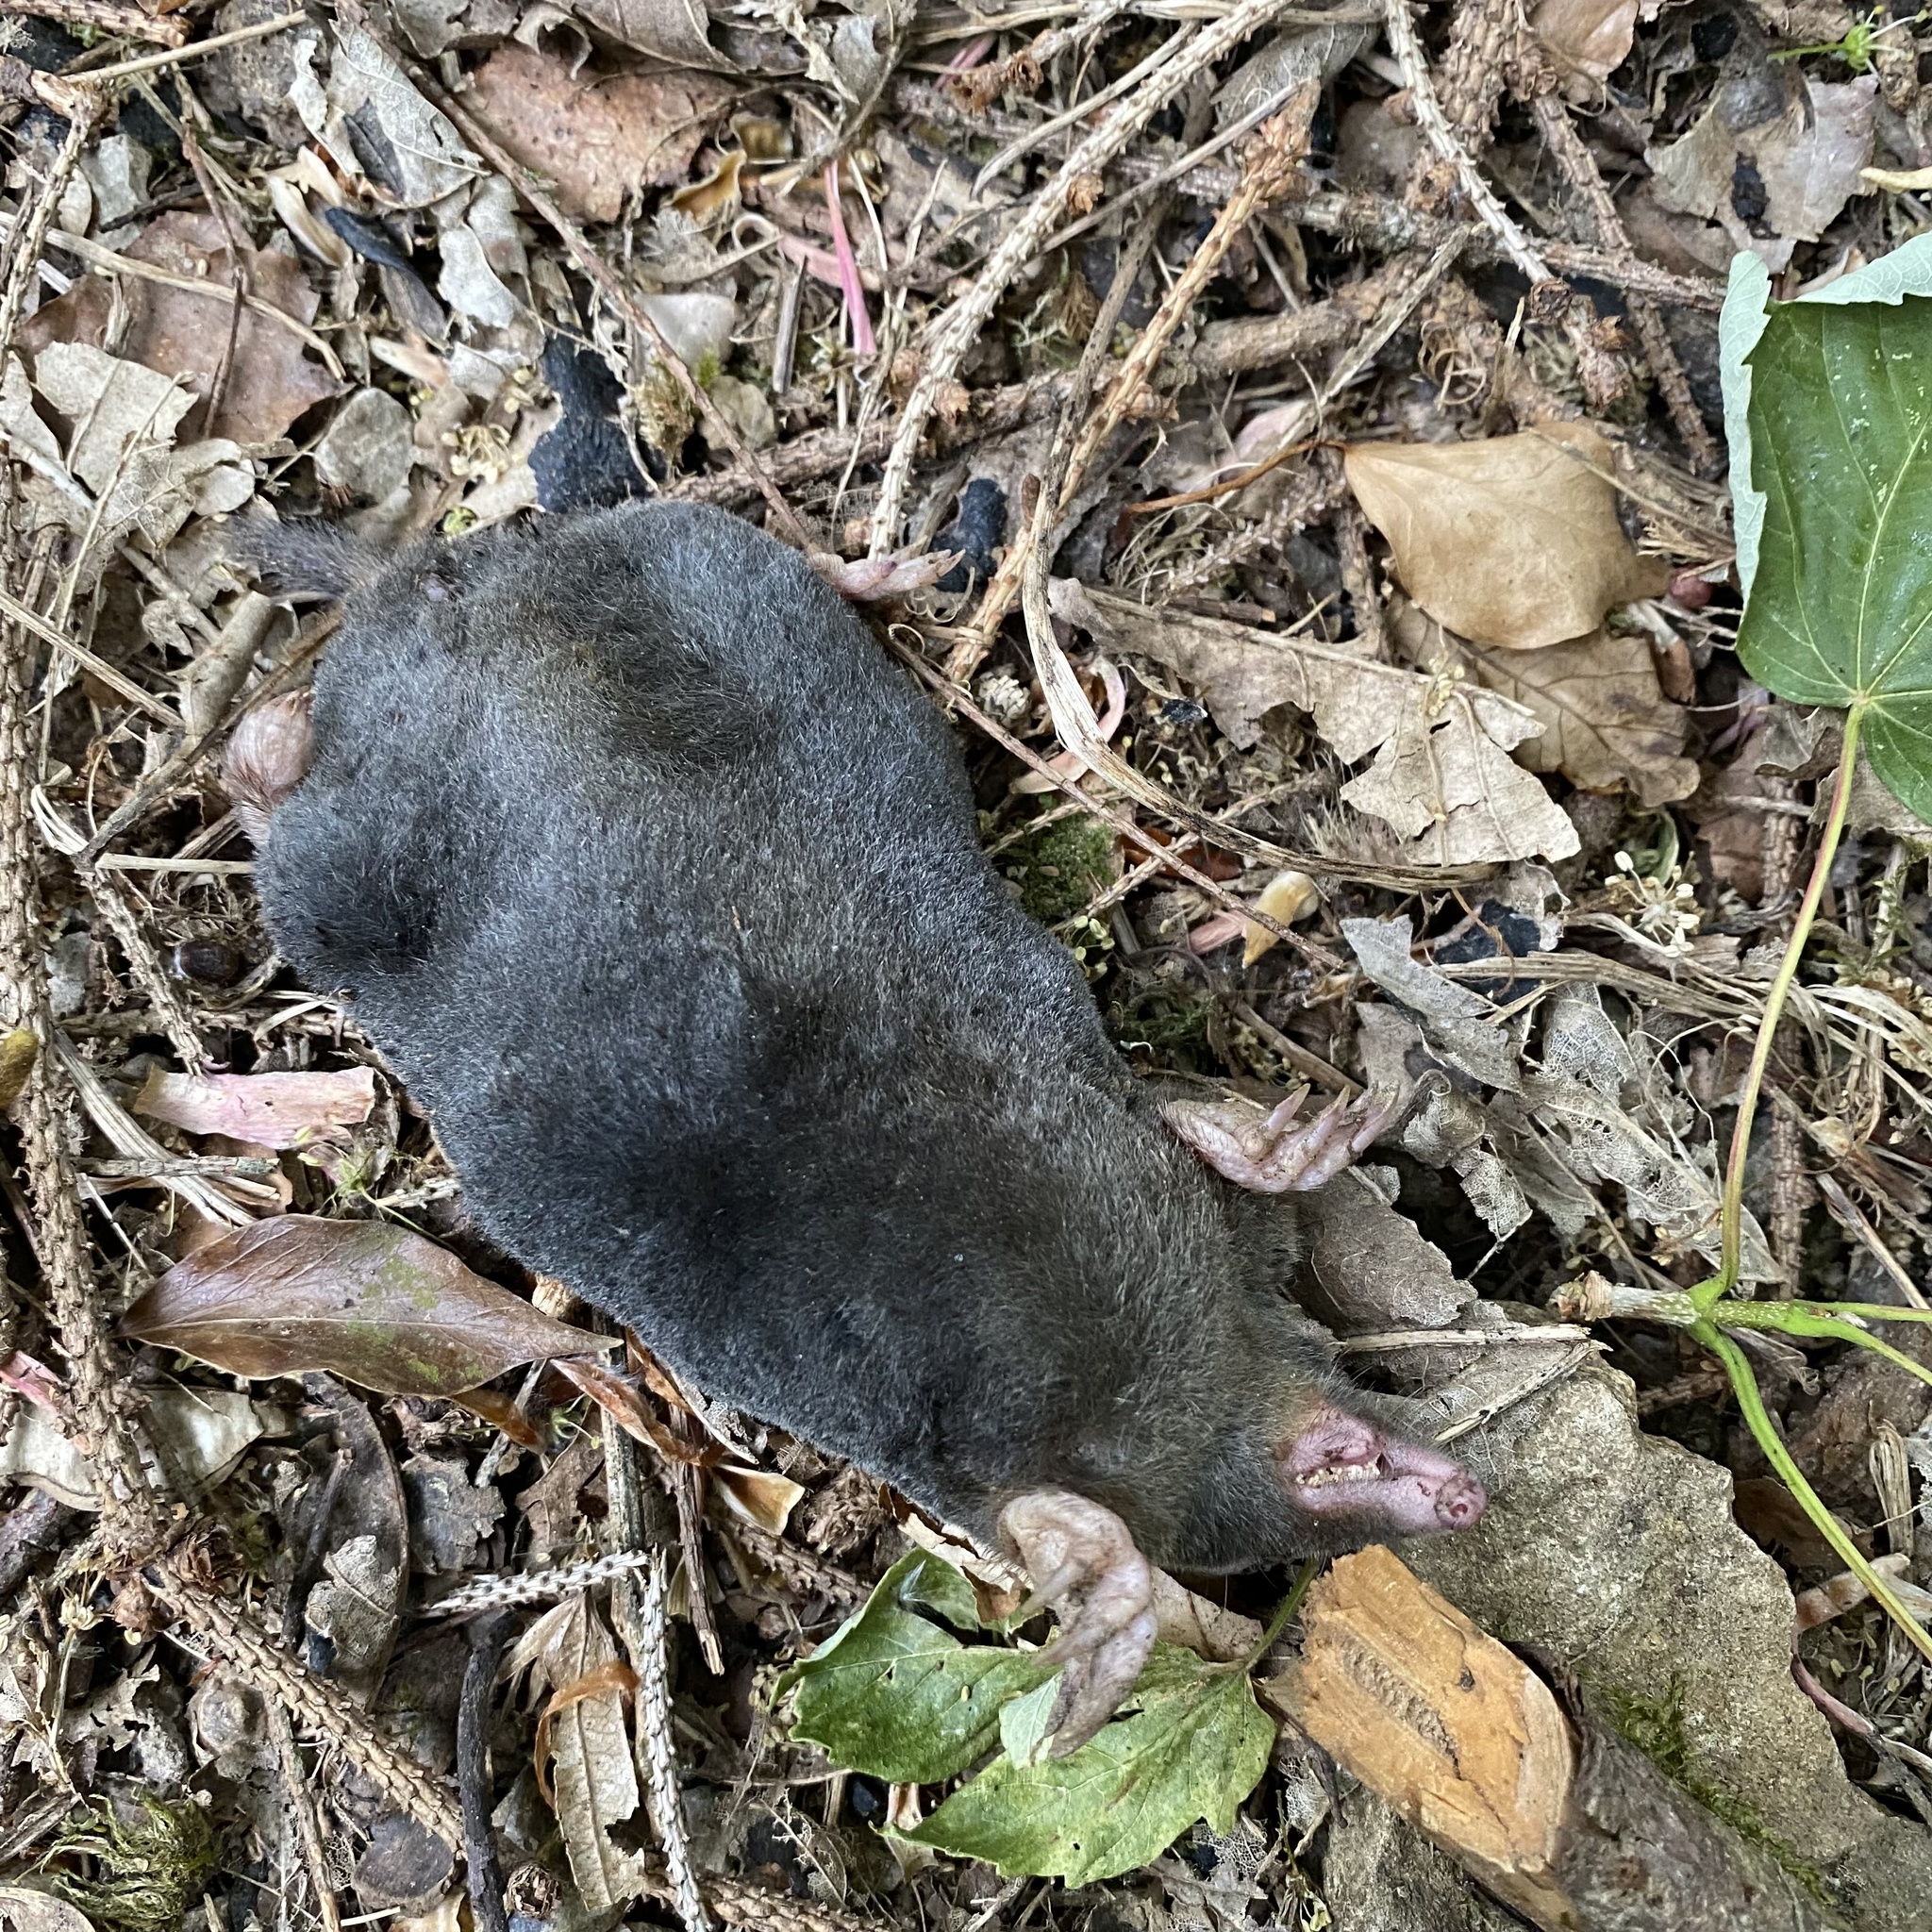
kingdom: Animalia
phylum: Chordata
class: Mammalia
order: Soricomorpha
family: Talpidae
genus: Talpa
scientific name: Talpa europaea
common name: European mole
